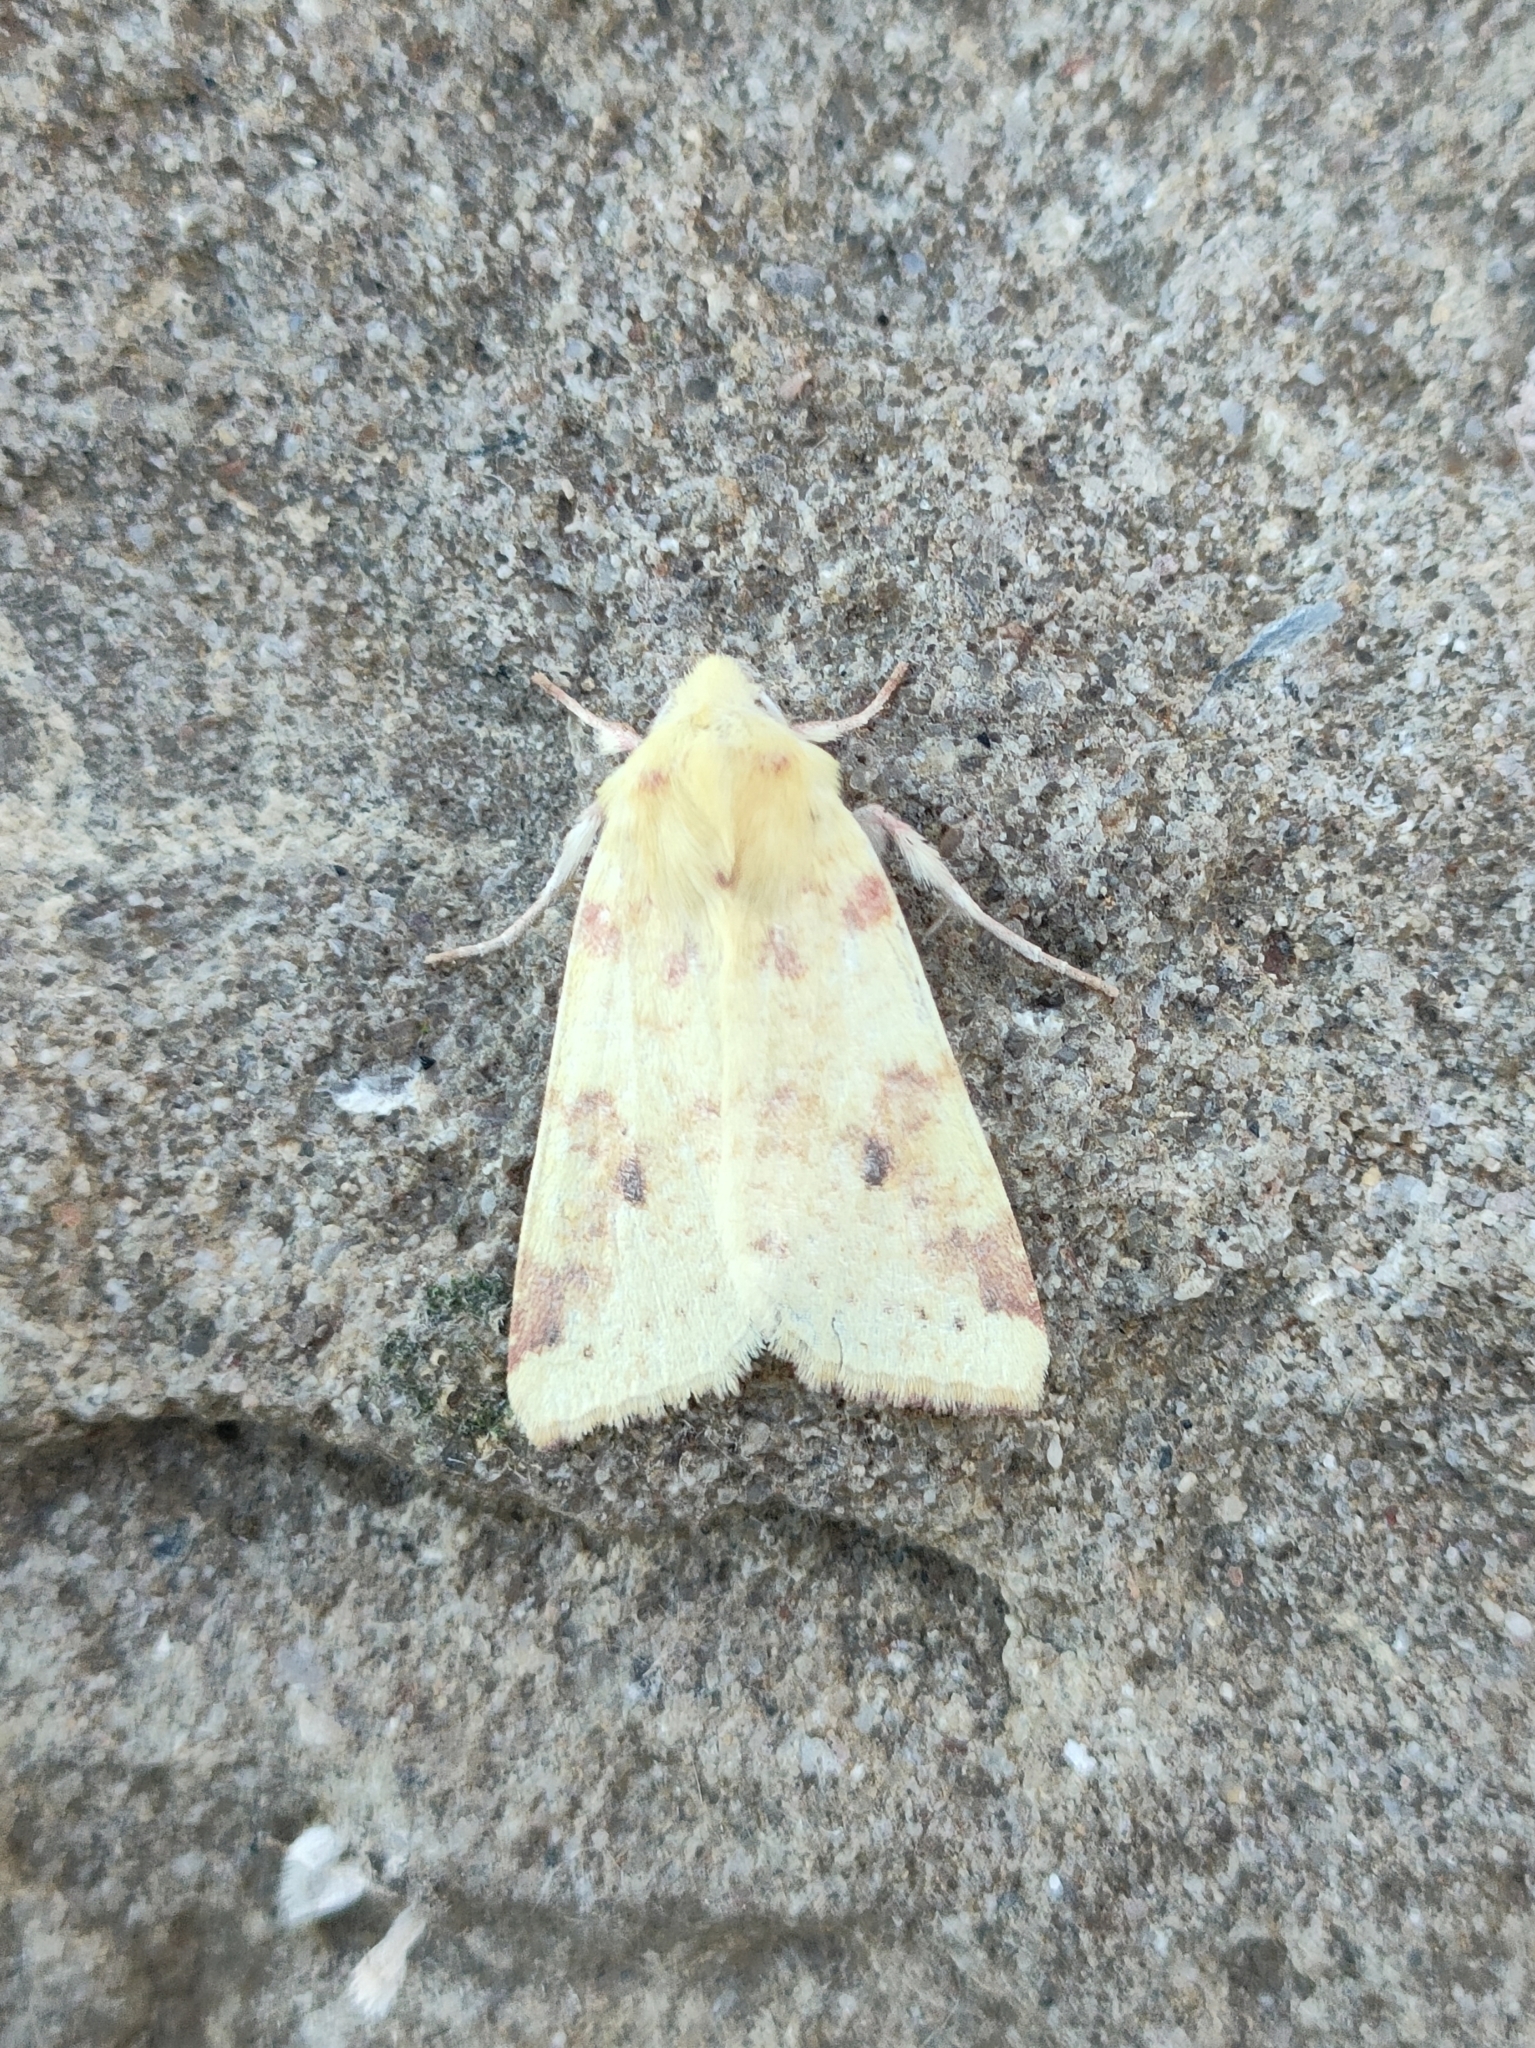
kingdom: Animalia
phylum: Arthropoda
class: Insecta
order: Lepidoptera
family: Noctuidae
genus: Xanthia
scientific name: Xanthia icteritia
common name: The sallow
